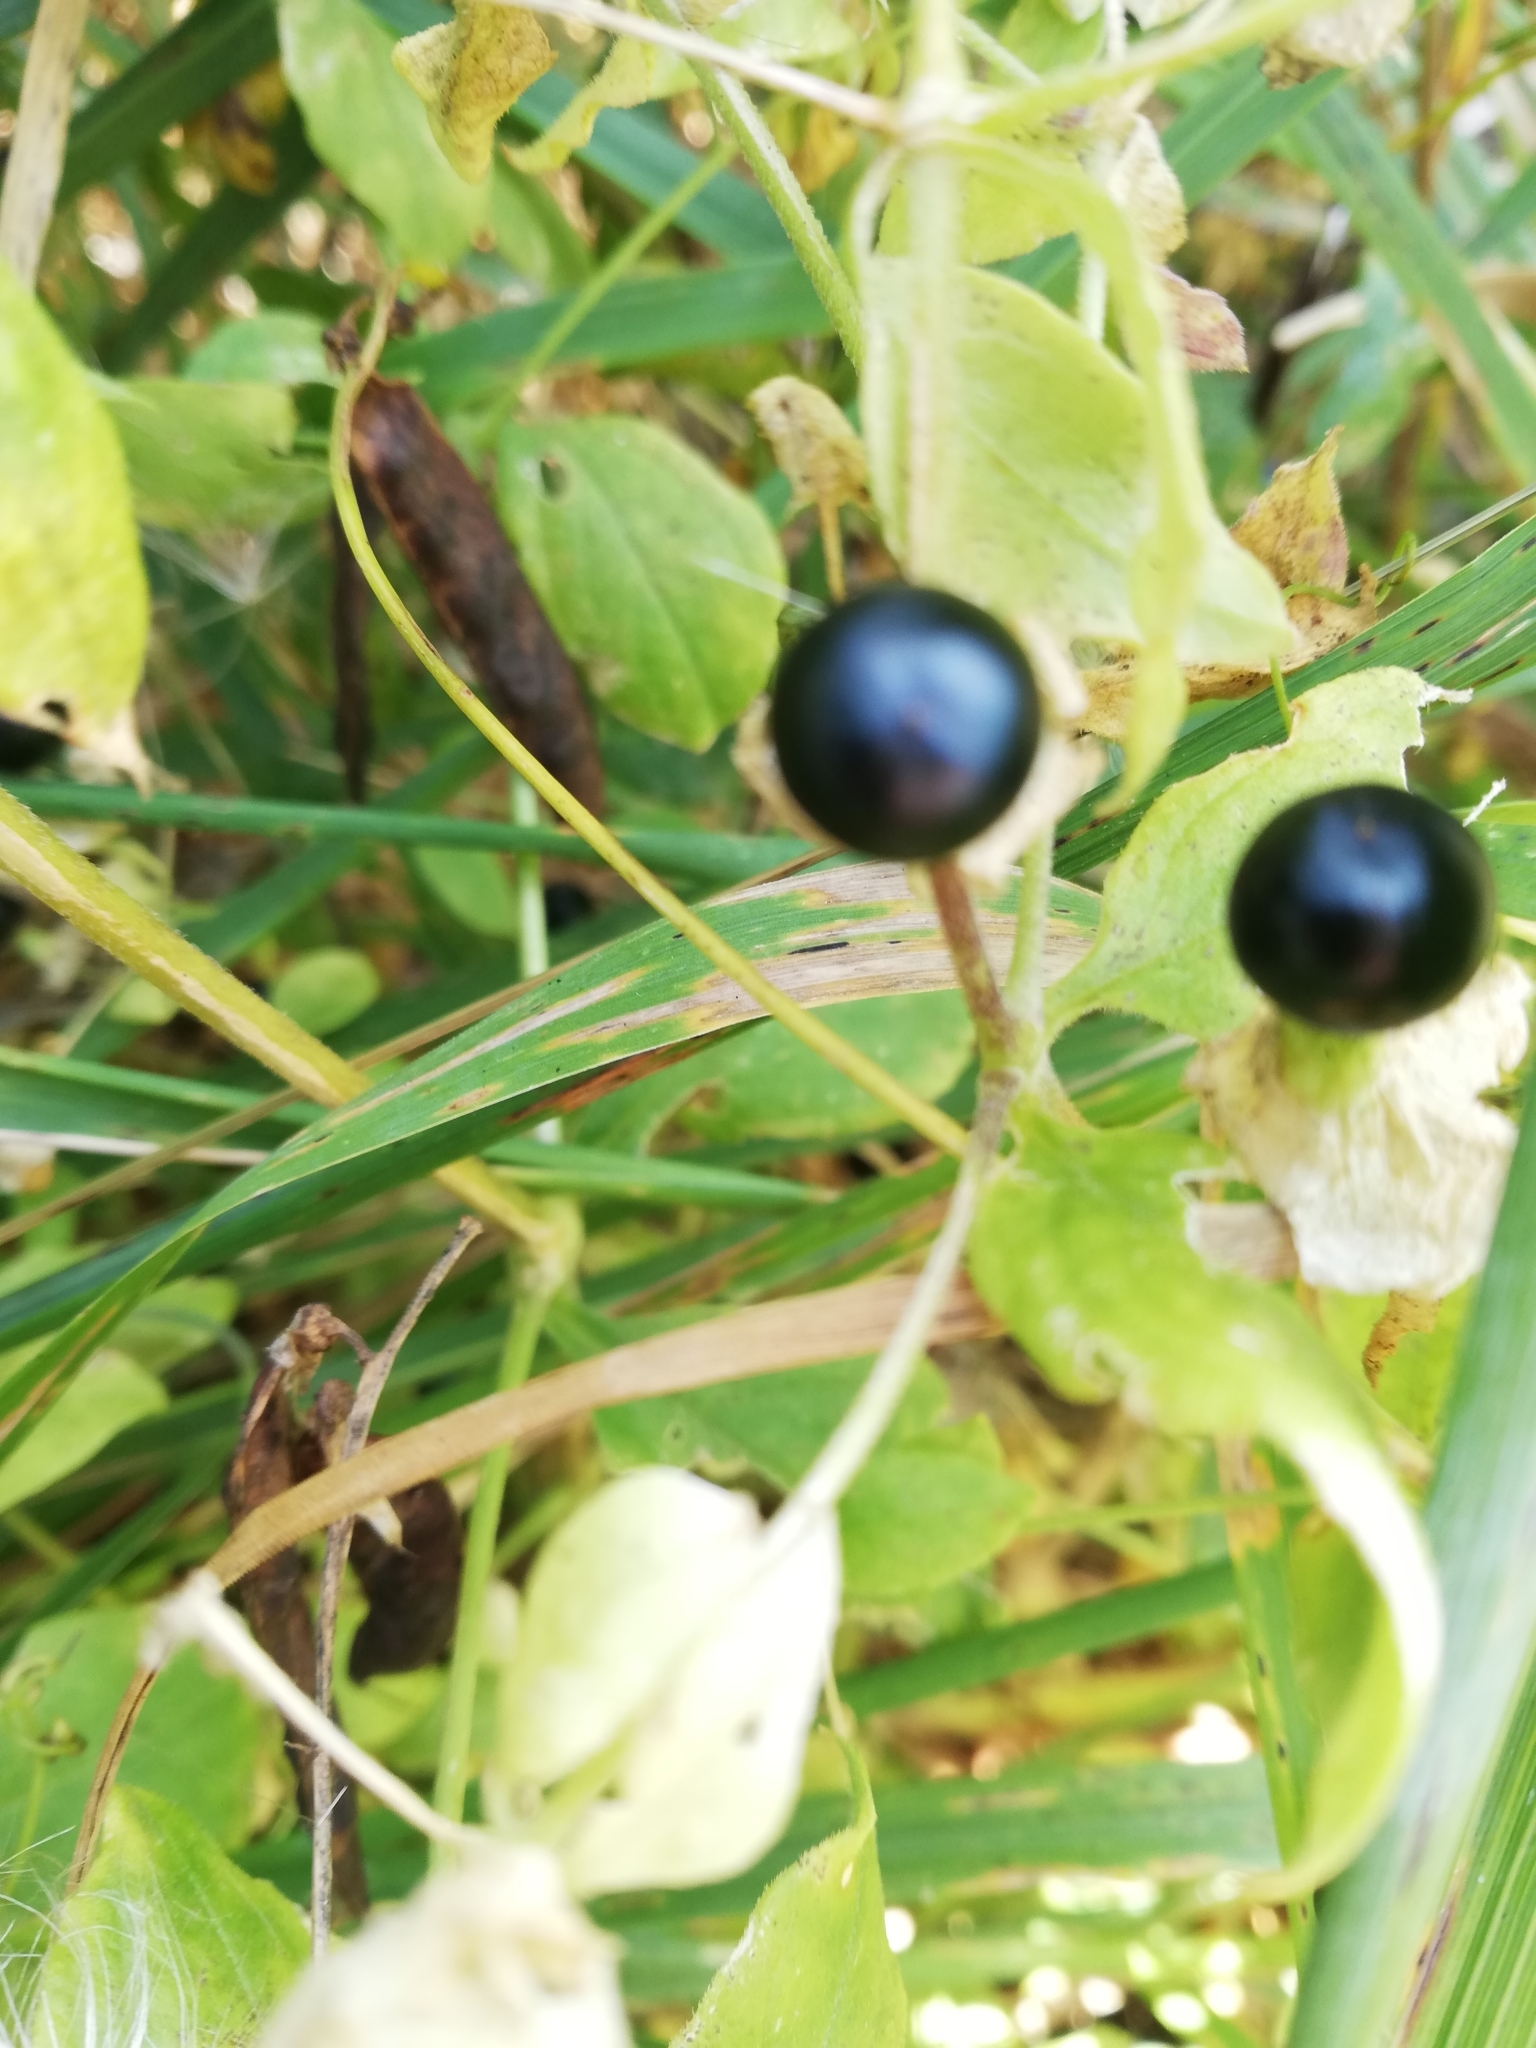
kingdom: Plantae
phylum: Tracheophyta
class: Magnoliopsida
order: Caryophyllales
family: Caryophyllaceae
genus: Silene
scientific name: Silene baccifera
